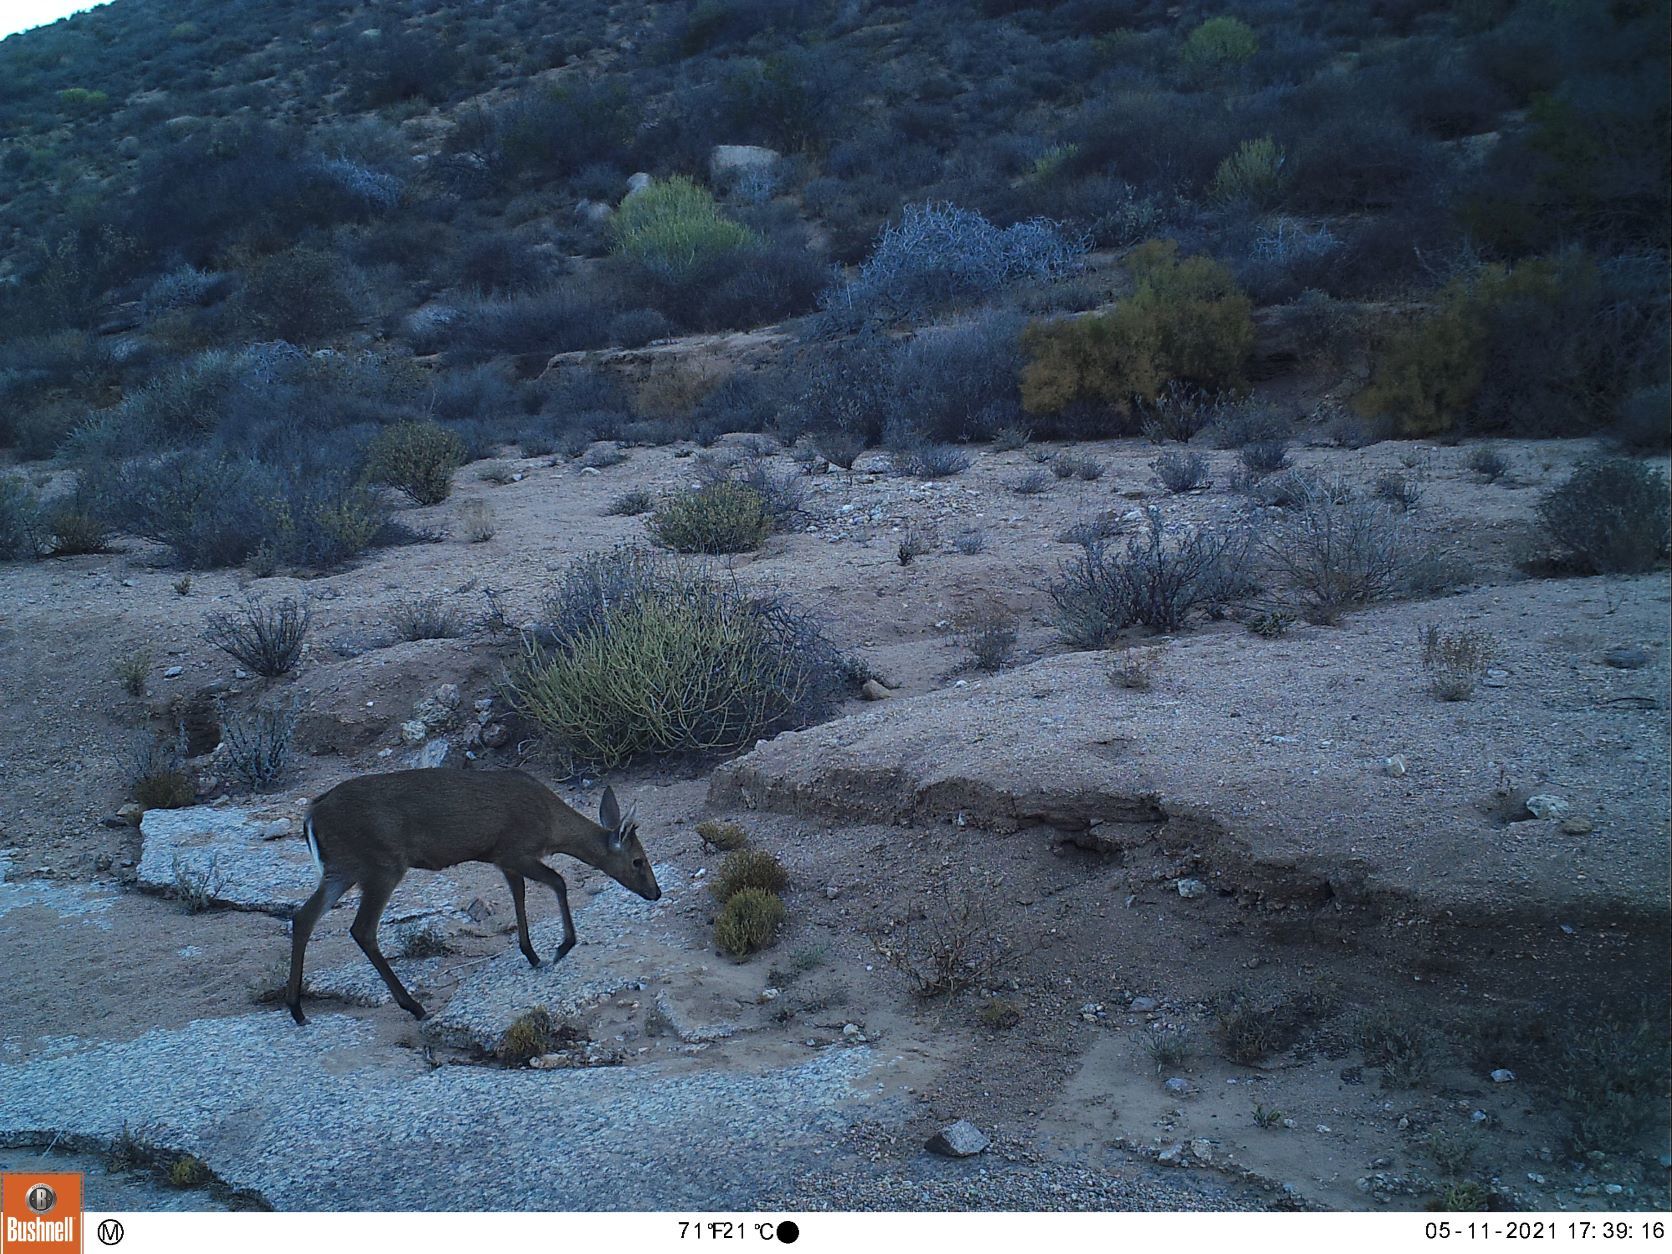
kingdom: Animalia
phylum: Chordata
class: Mammalia
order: Artiodactyla
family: Bovidae
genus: Sylvicapra
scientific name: Sylvicapra grimmia
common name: Bush duiker
